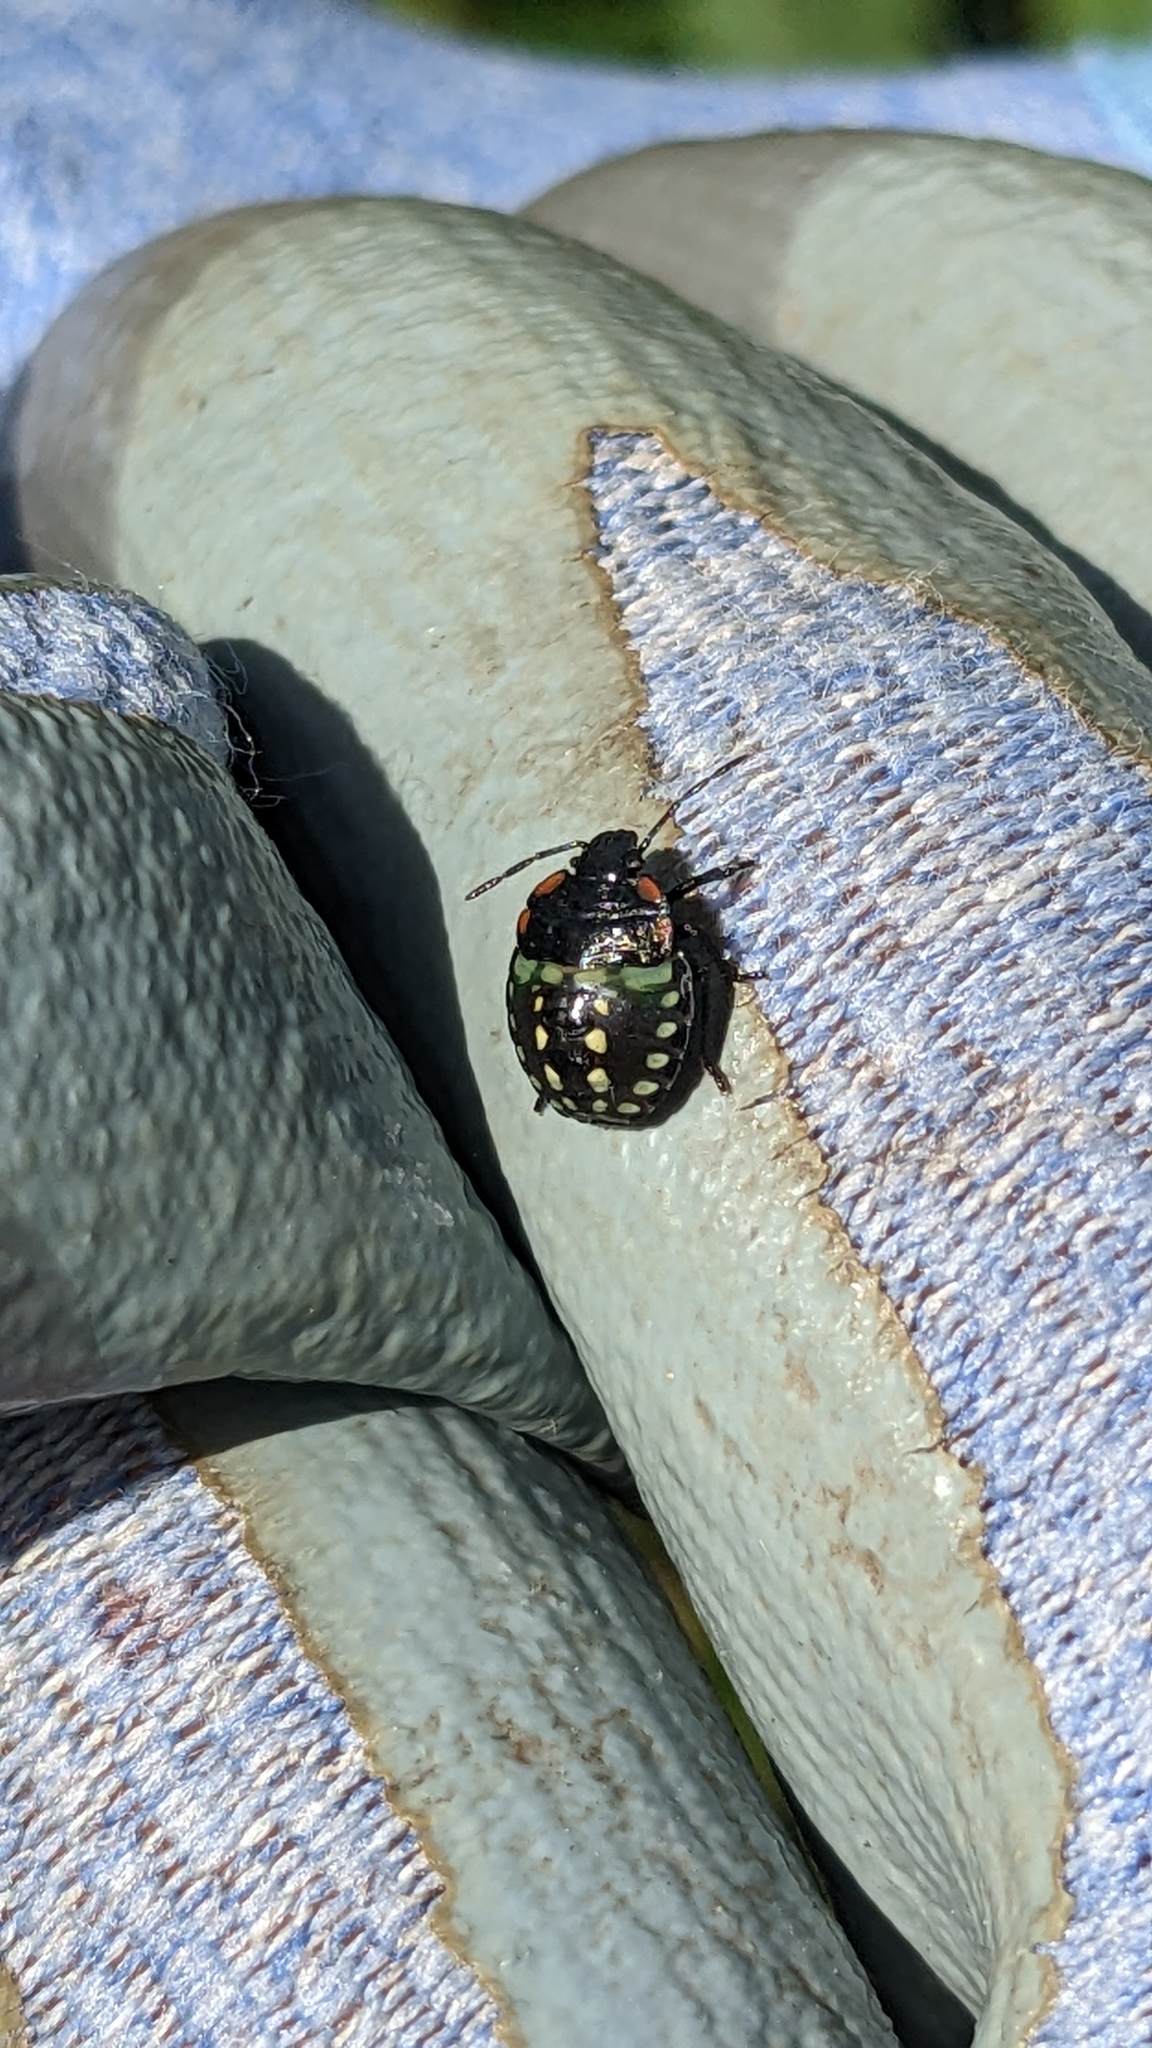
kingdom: Animalia
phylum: Arthropoda
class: Insecta
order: Hemiptera
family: Pentatomidae
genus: Nezara
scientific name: Nezara viridula
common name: Southern green stink bug
